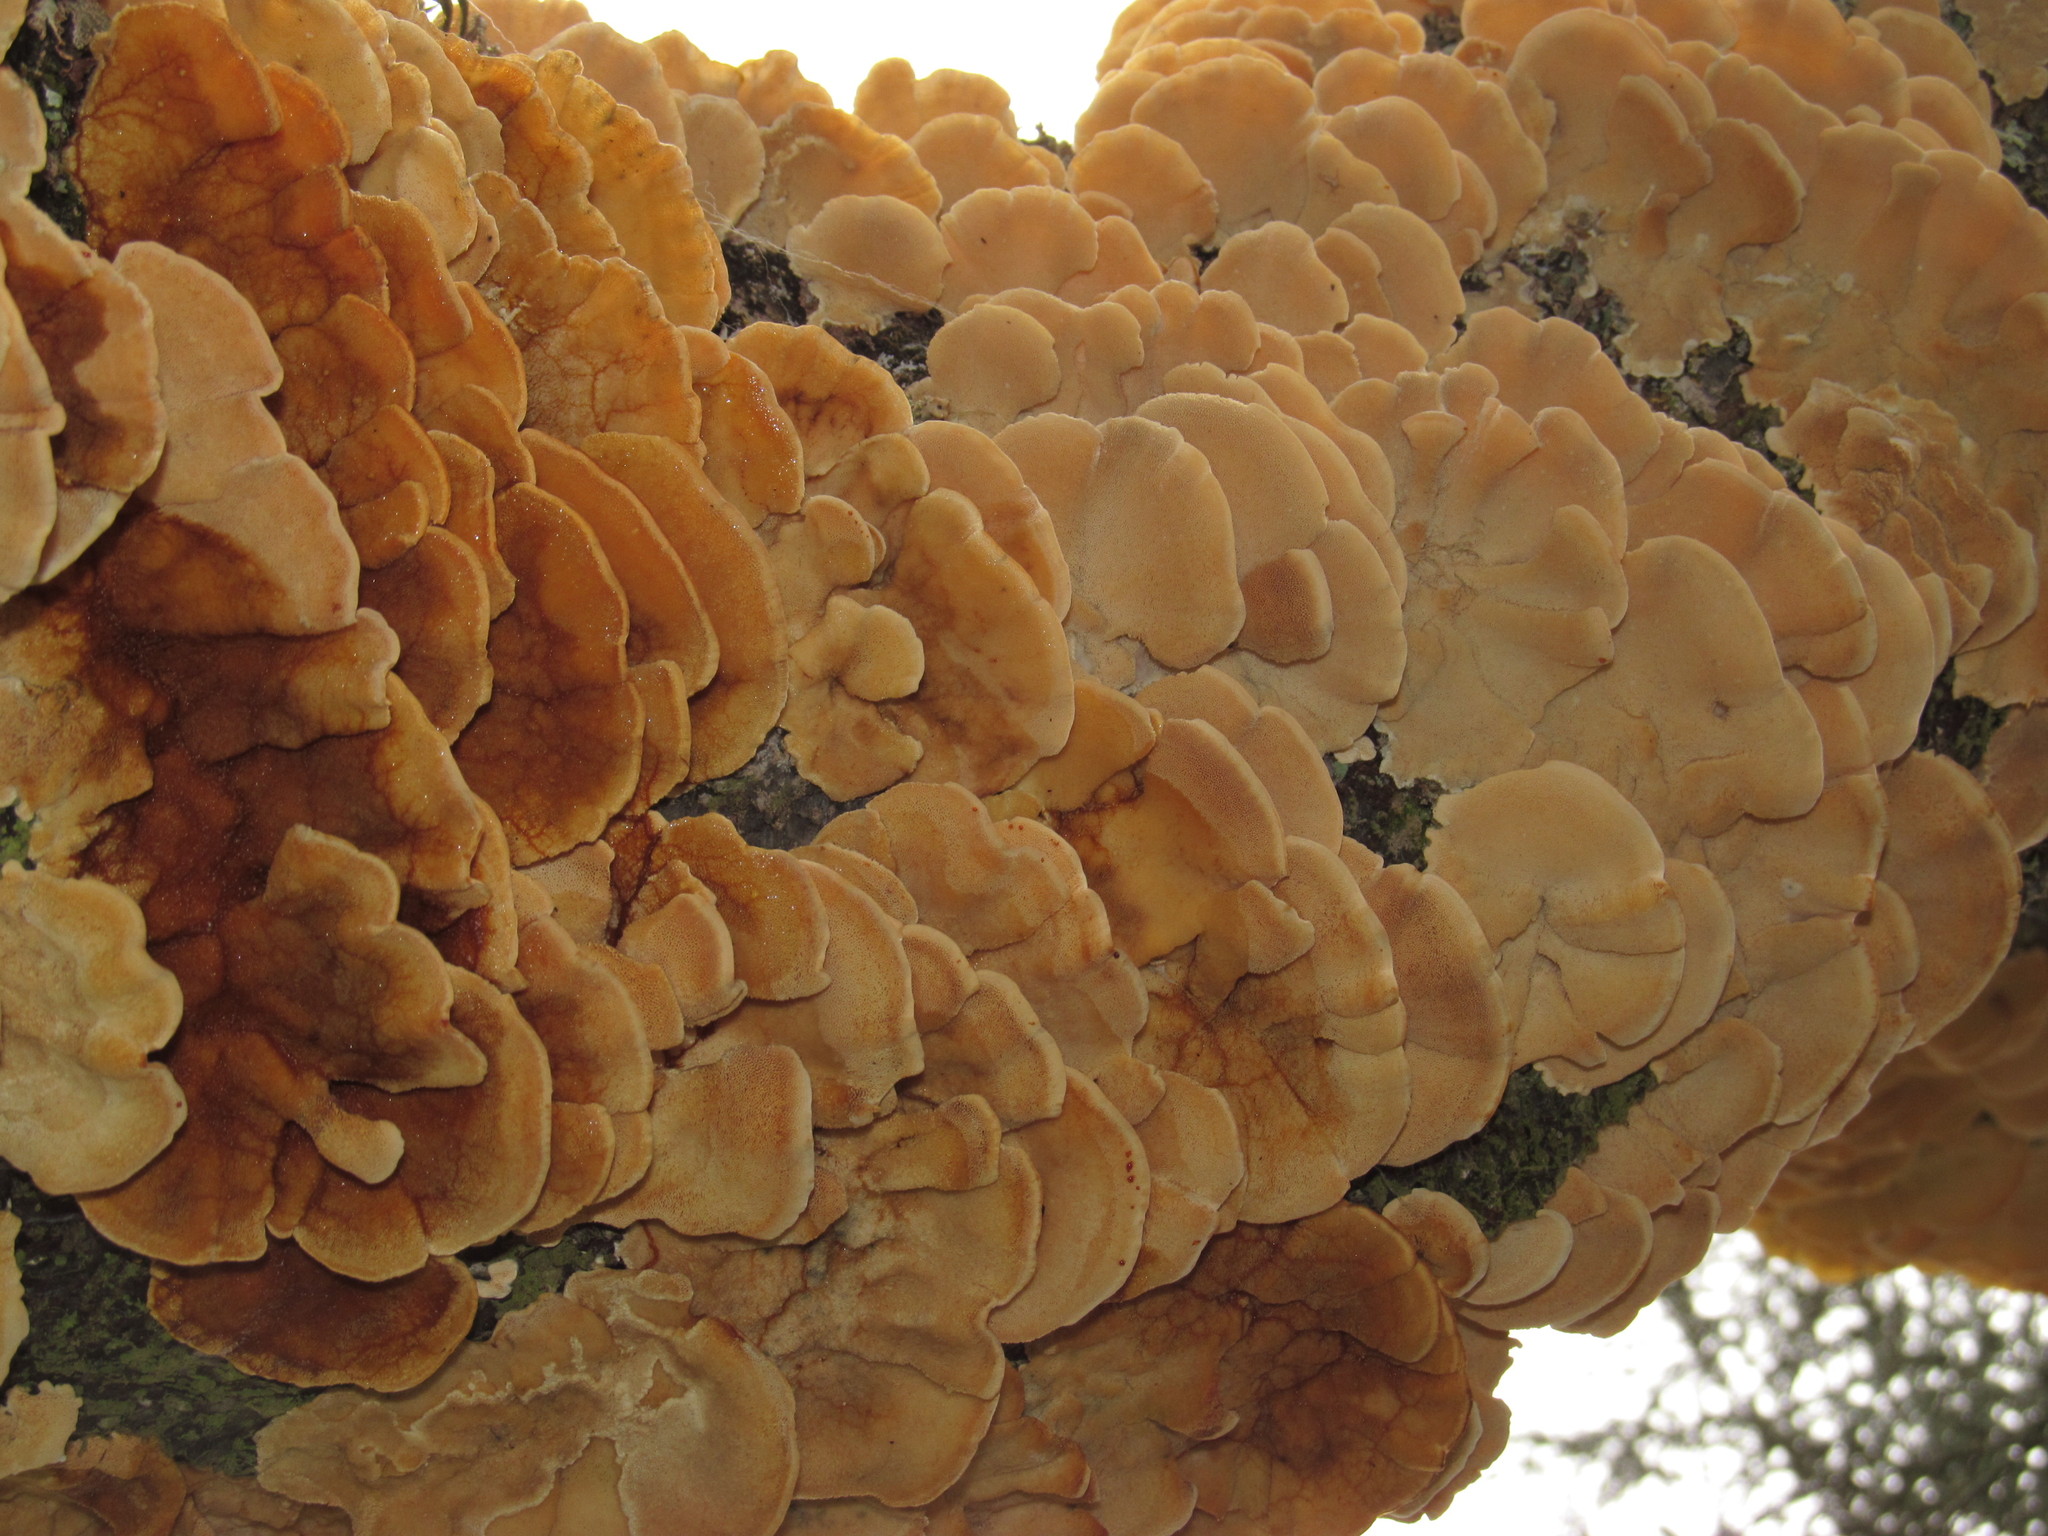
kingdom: Fungi
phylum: Basidiomycota
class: Agaricomycetes
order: Polyporales
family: Polyporaceae
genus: Trametes
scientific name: Trametes versicolor
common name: Turkeytail
